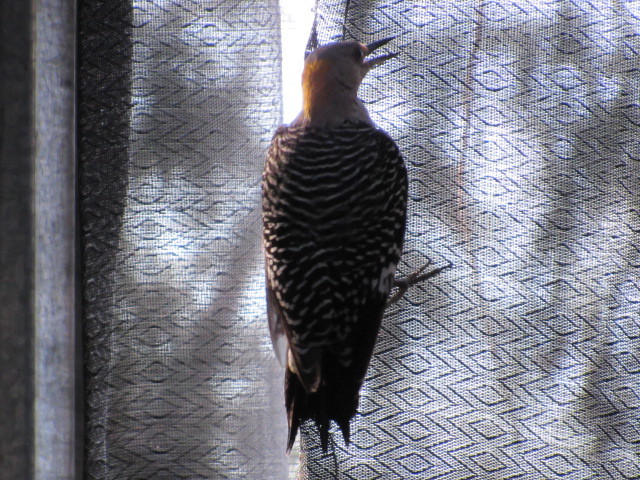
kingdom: Animalia
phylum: Chordata
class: Aves
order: Piciformes
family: Picidae
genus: Melanerpes
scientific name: Melanerpes aurifrons
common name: Golden-fronted woodpecker
